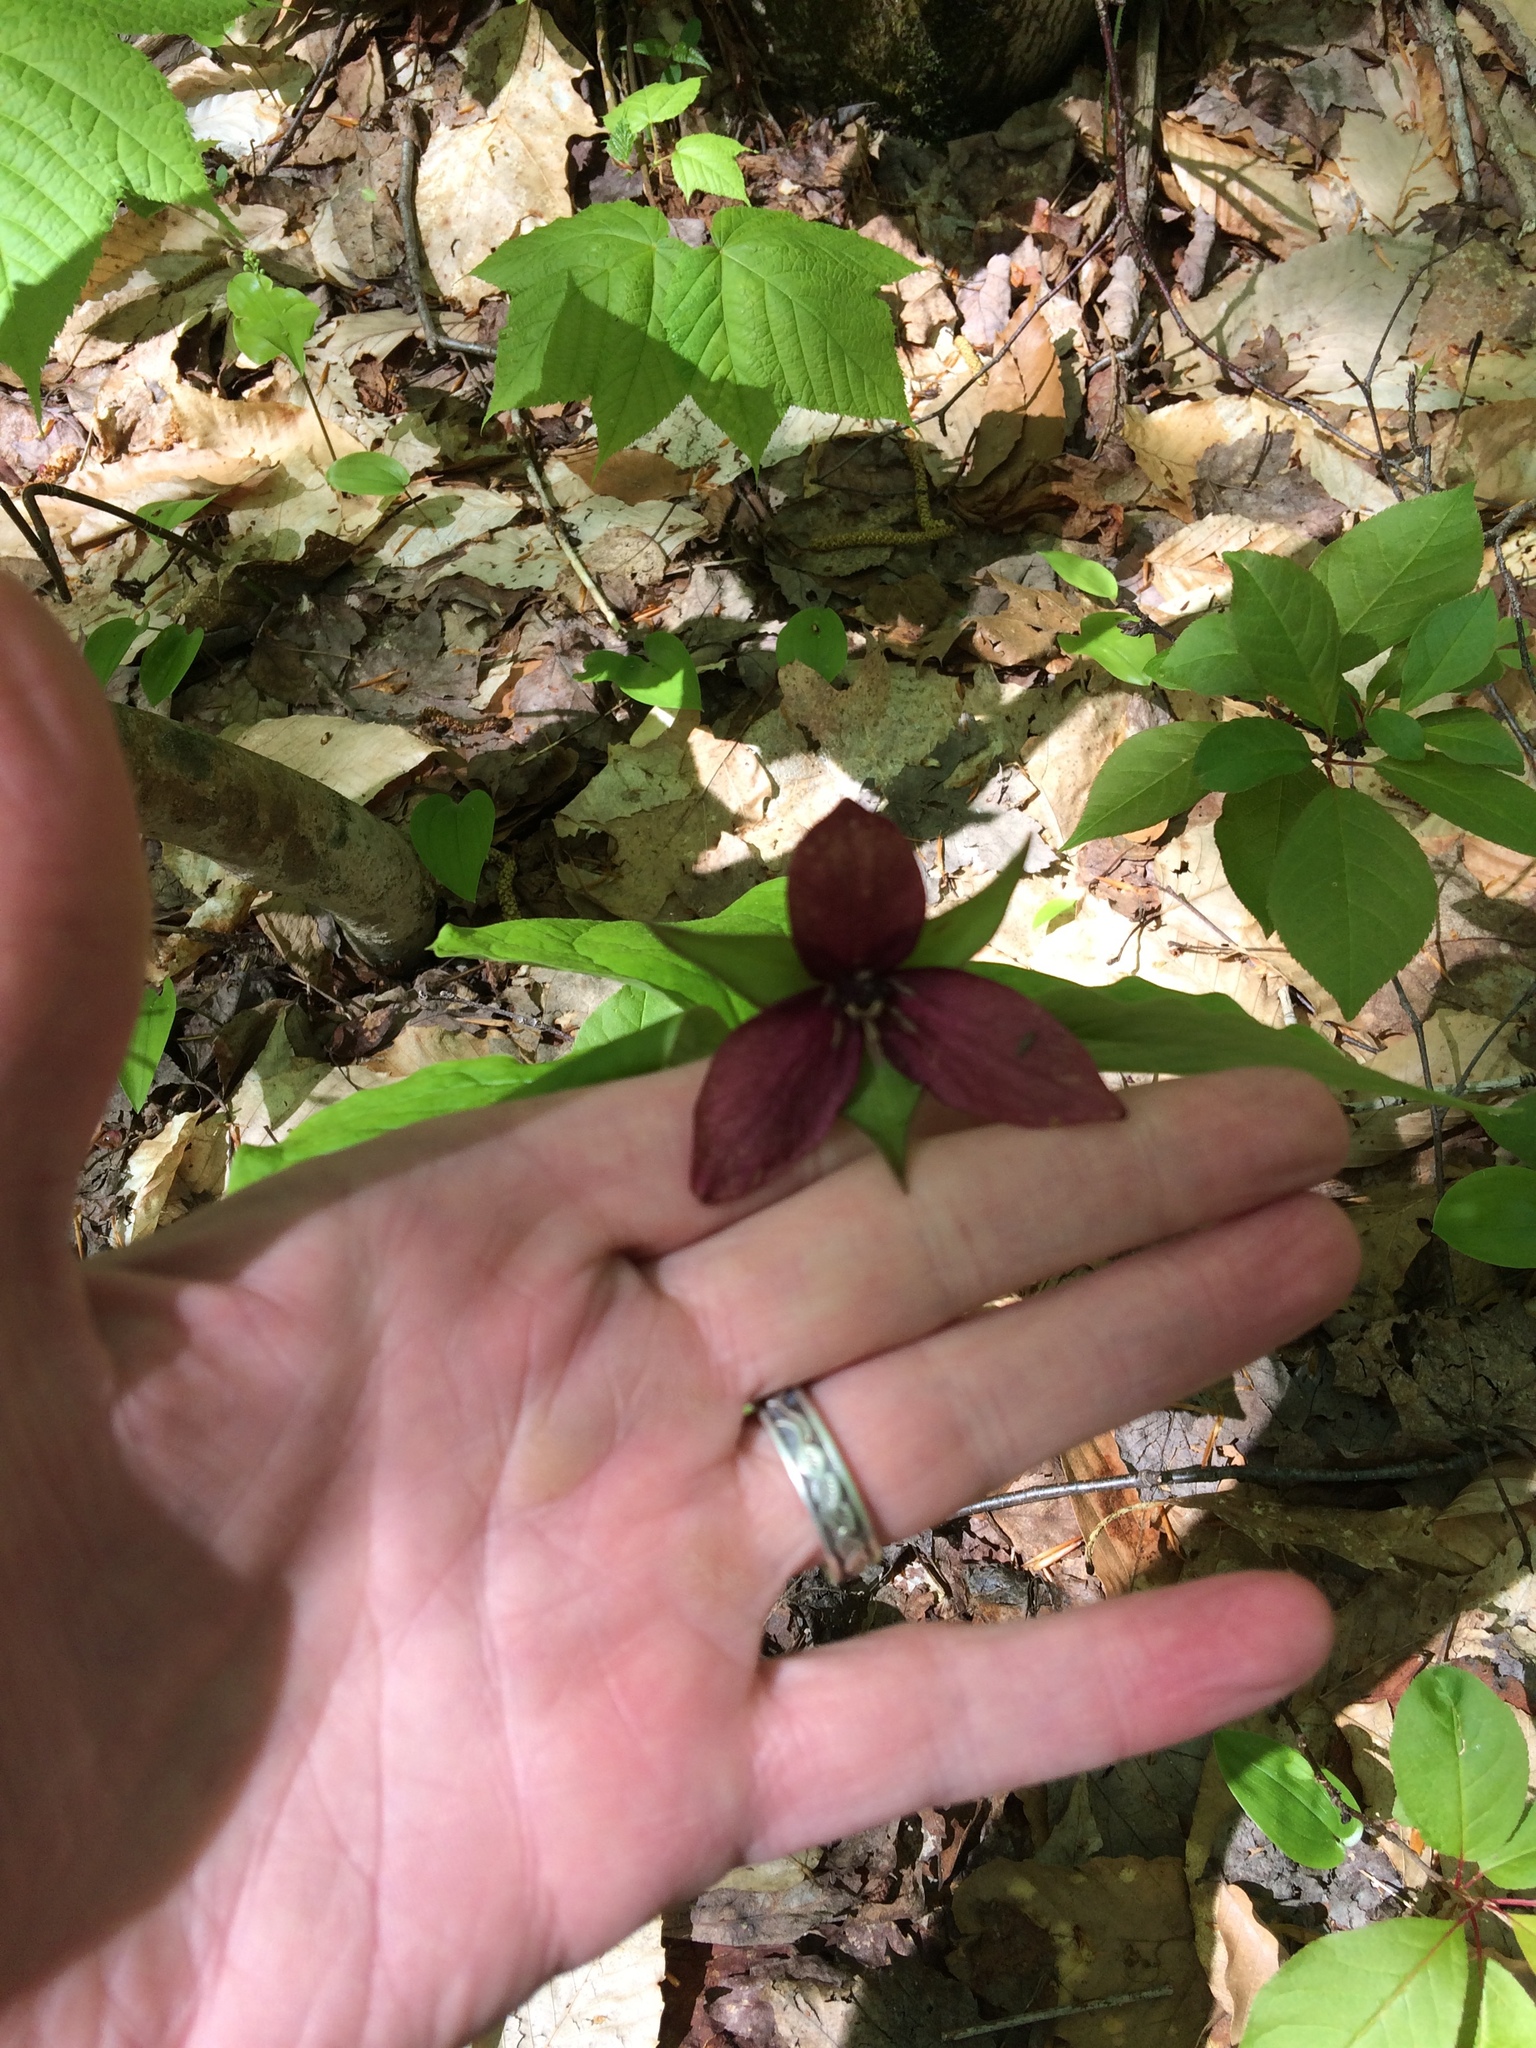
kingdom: Plantae
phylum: Tracheophyta
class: Liliopsida
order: Liliales
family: Melanthiaceae
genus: Trillium
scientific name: Trillium erectum
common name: Purple trillium
